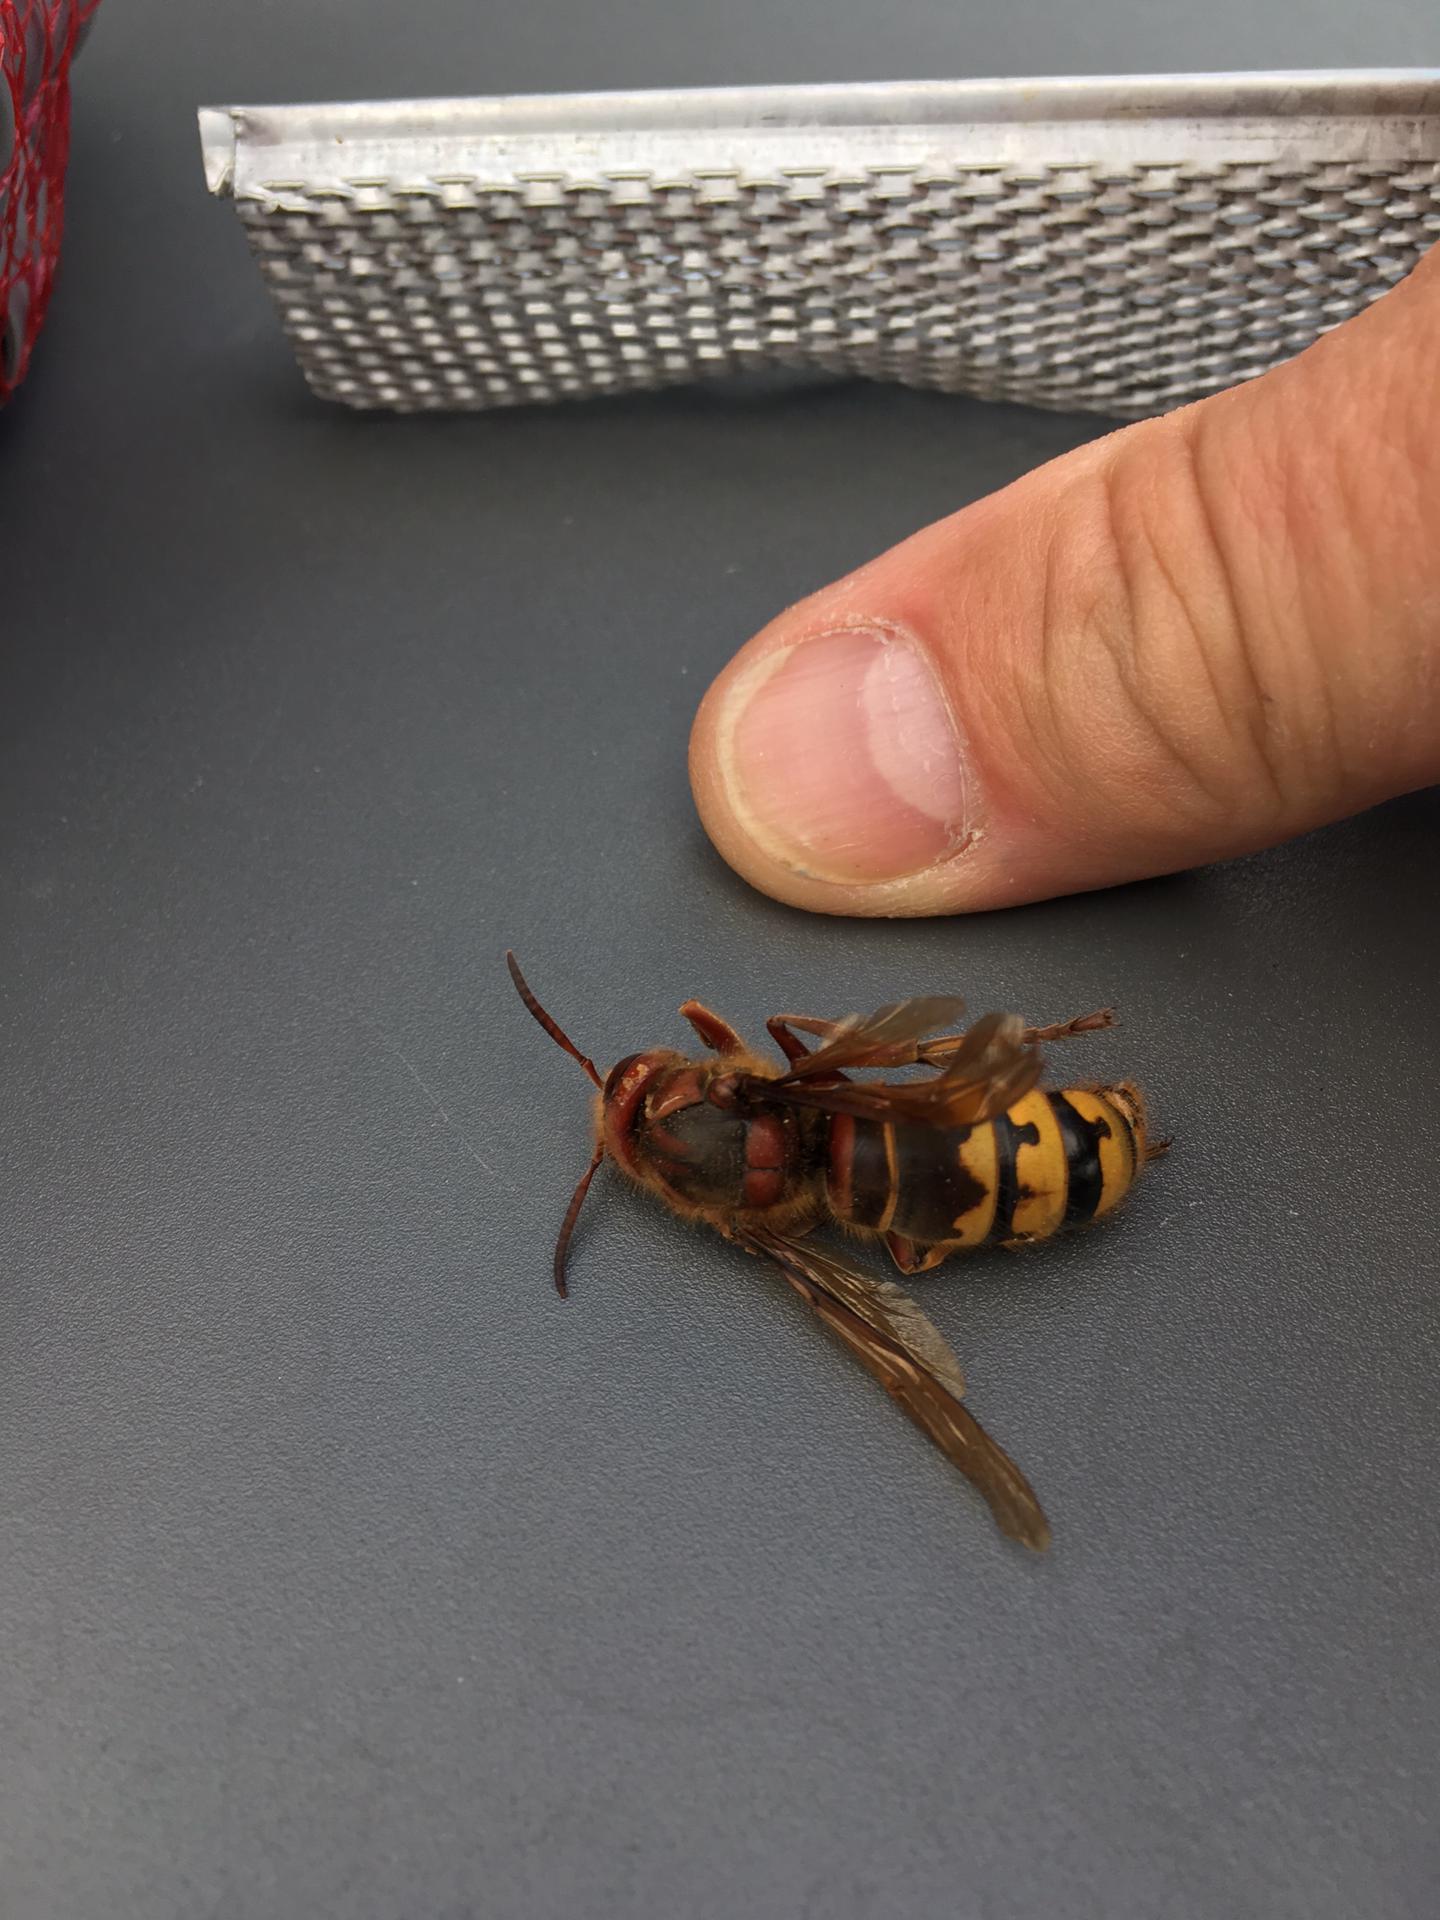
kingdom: Animalia
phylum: Arthropoda
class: Insecta
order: Hymenoptera
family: Vespidae
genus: Vespa
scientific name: Vespa crabro
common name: Hornet
